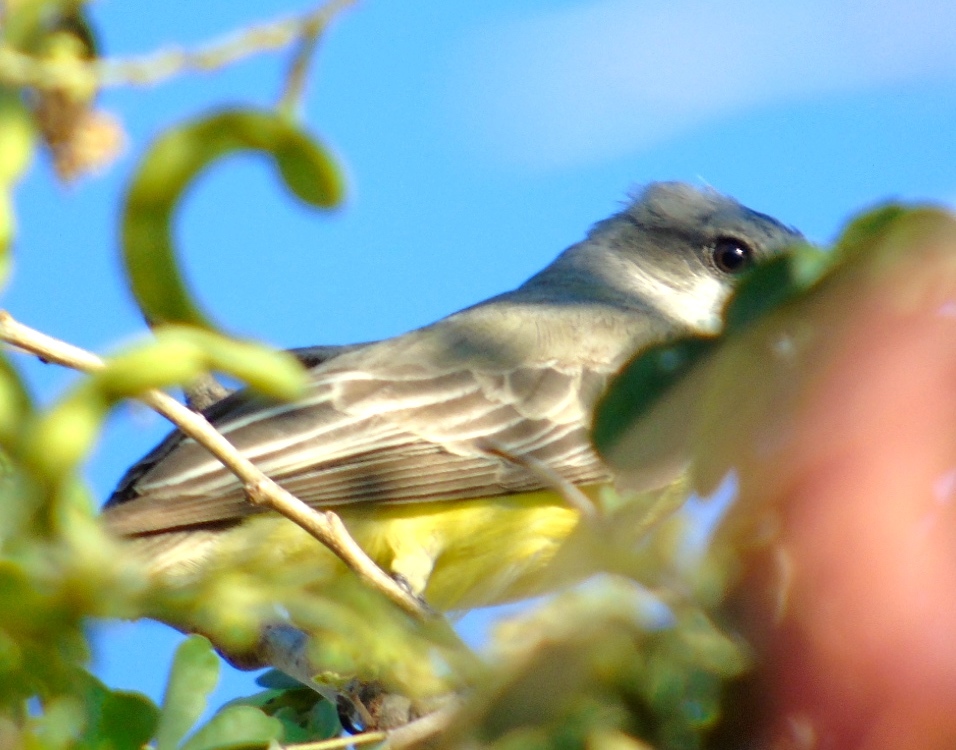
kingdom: Animalia
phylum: Chordata
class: Aves
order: Passeriformes
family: Tyrannidae
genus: Tyrannus
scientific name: Tyrannus melancholicus
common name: Tropical kingbird
